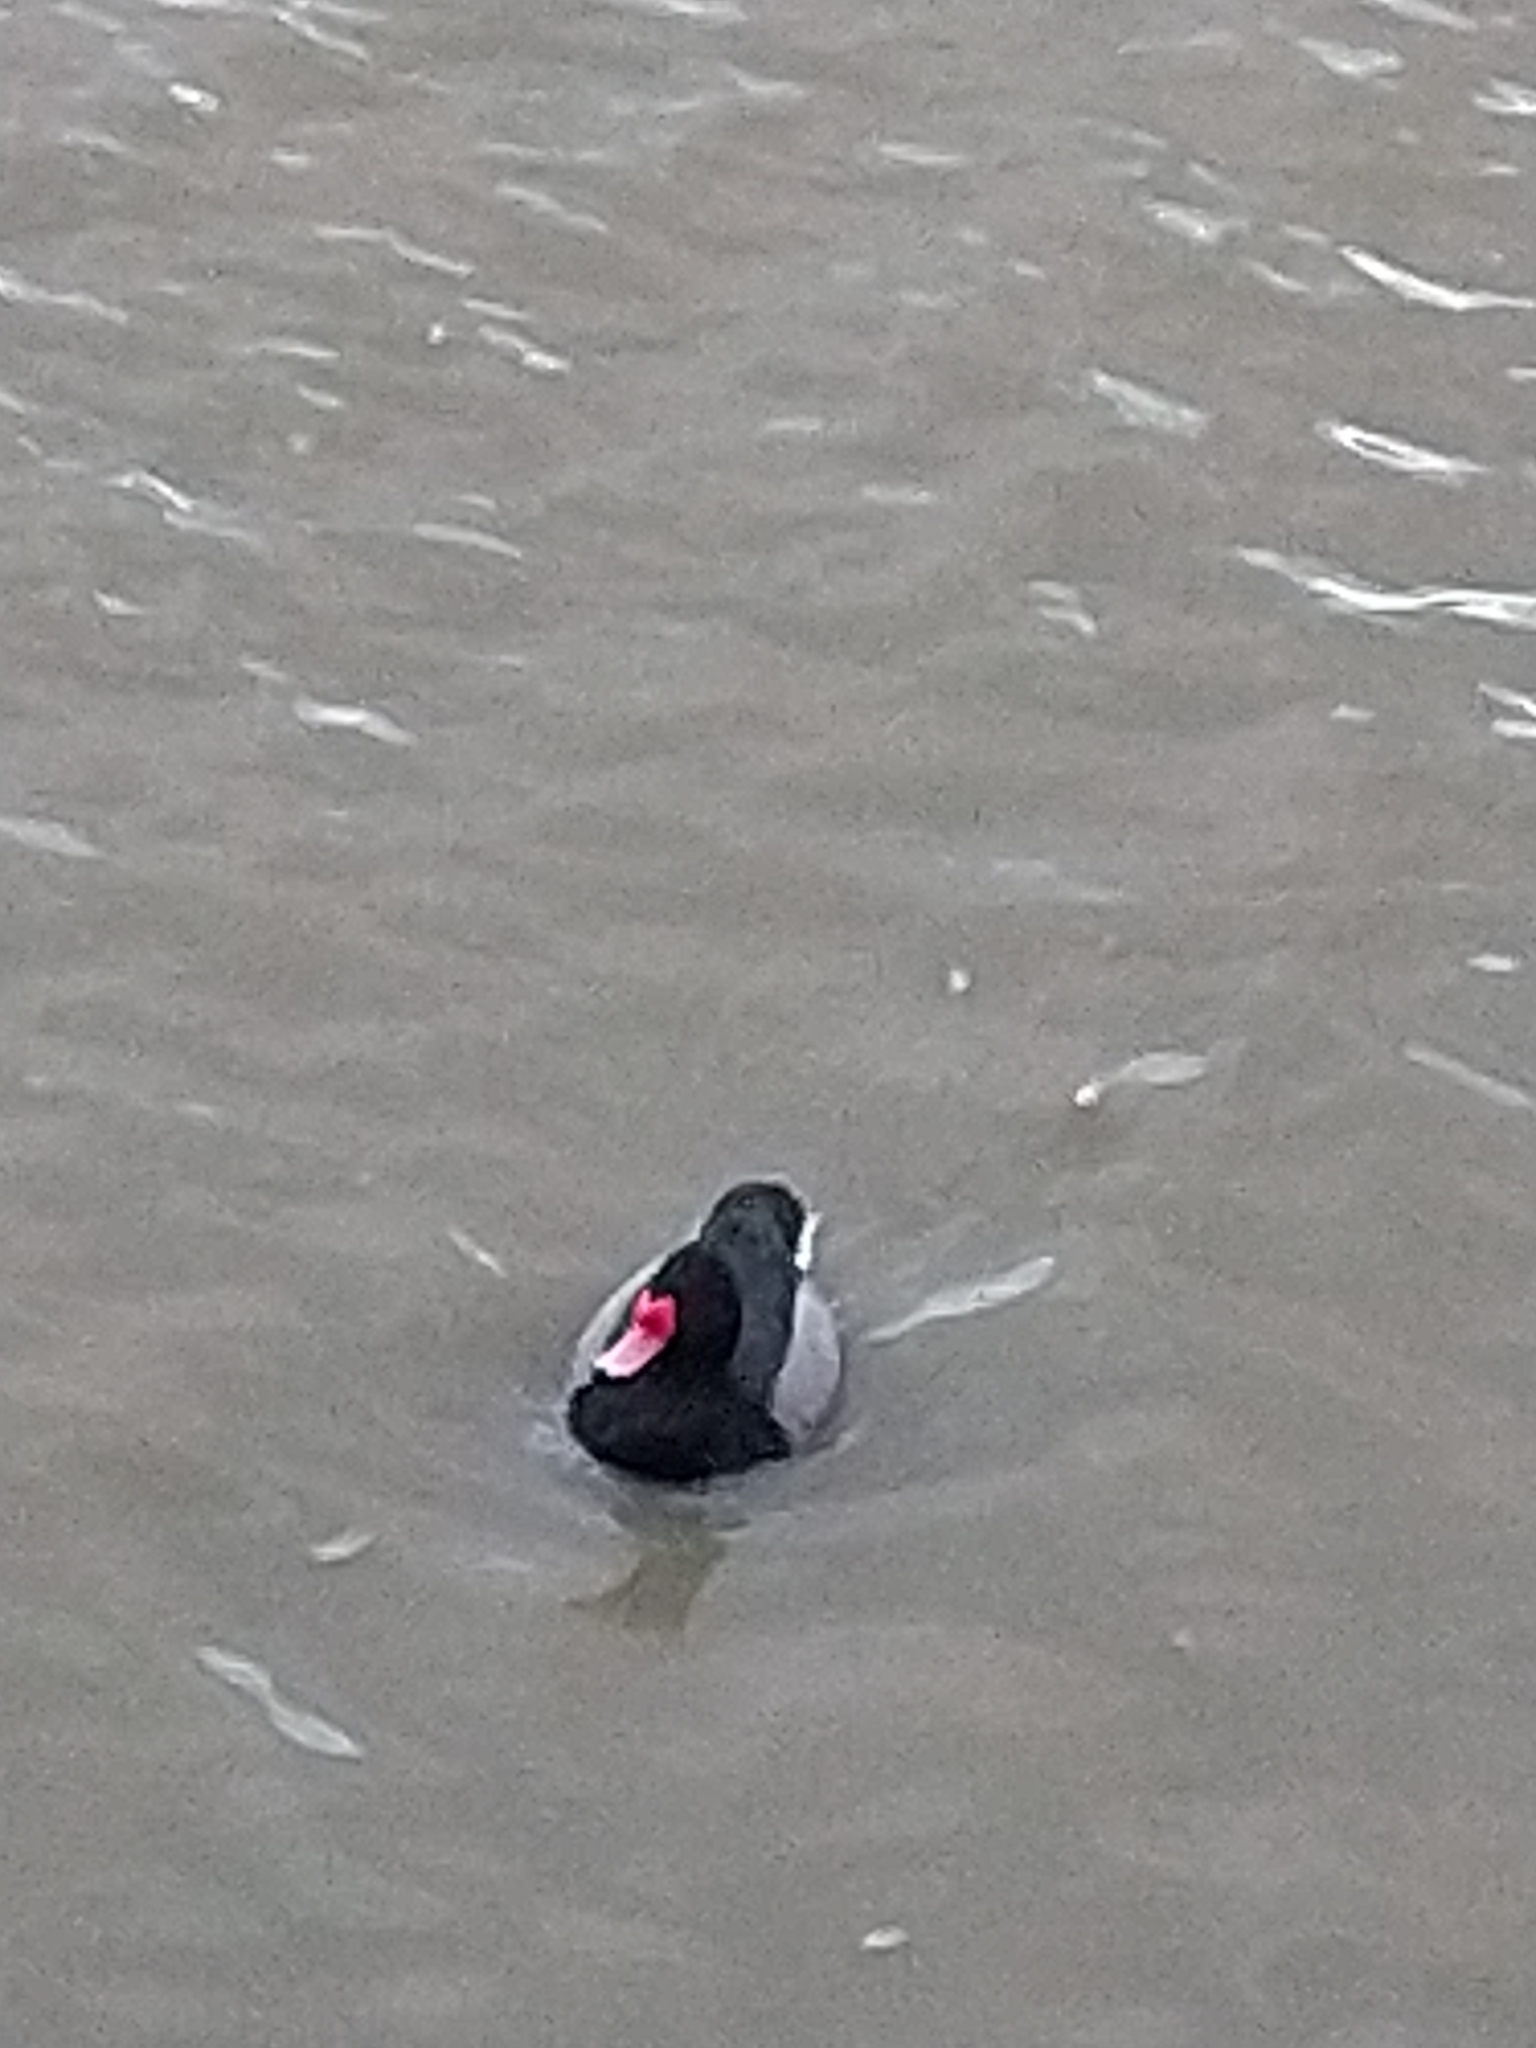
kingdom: Animalia
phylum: Chordata
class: Aves
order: Anseriformes
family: Anatidae
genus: Netta
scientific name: Netta peposaca
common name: Rosy-billed pochard
